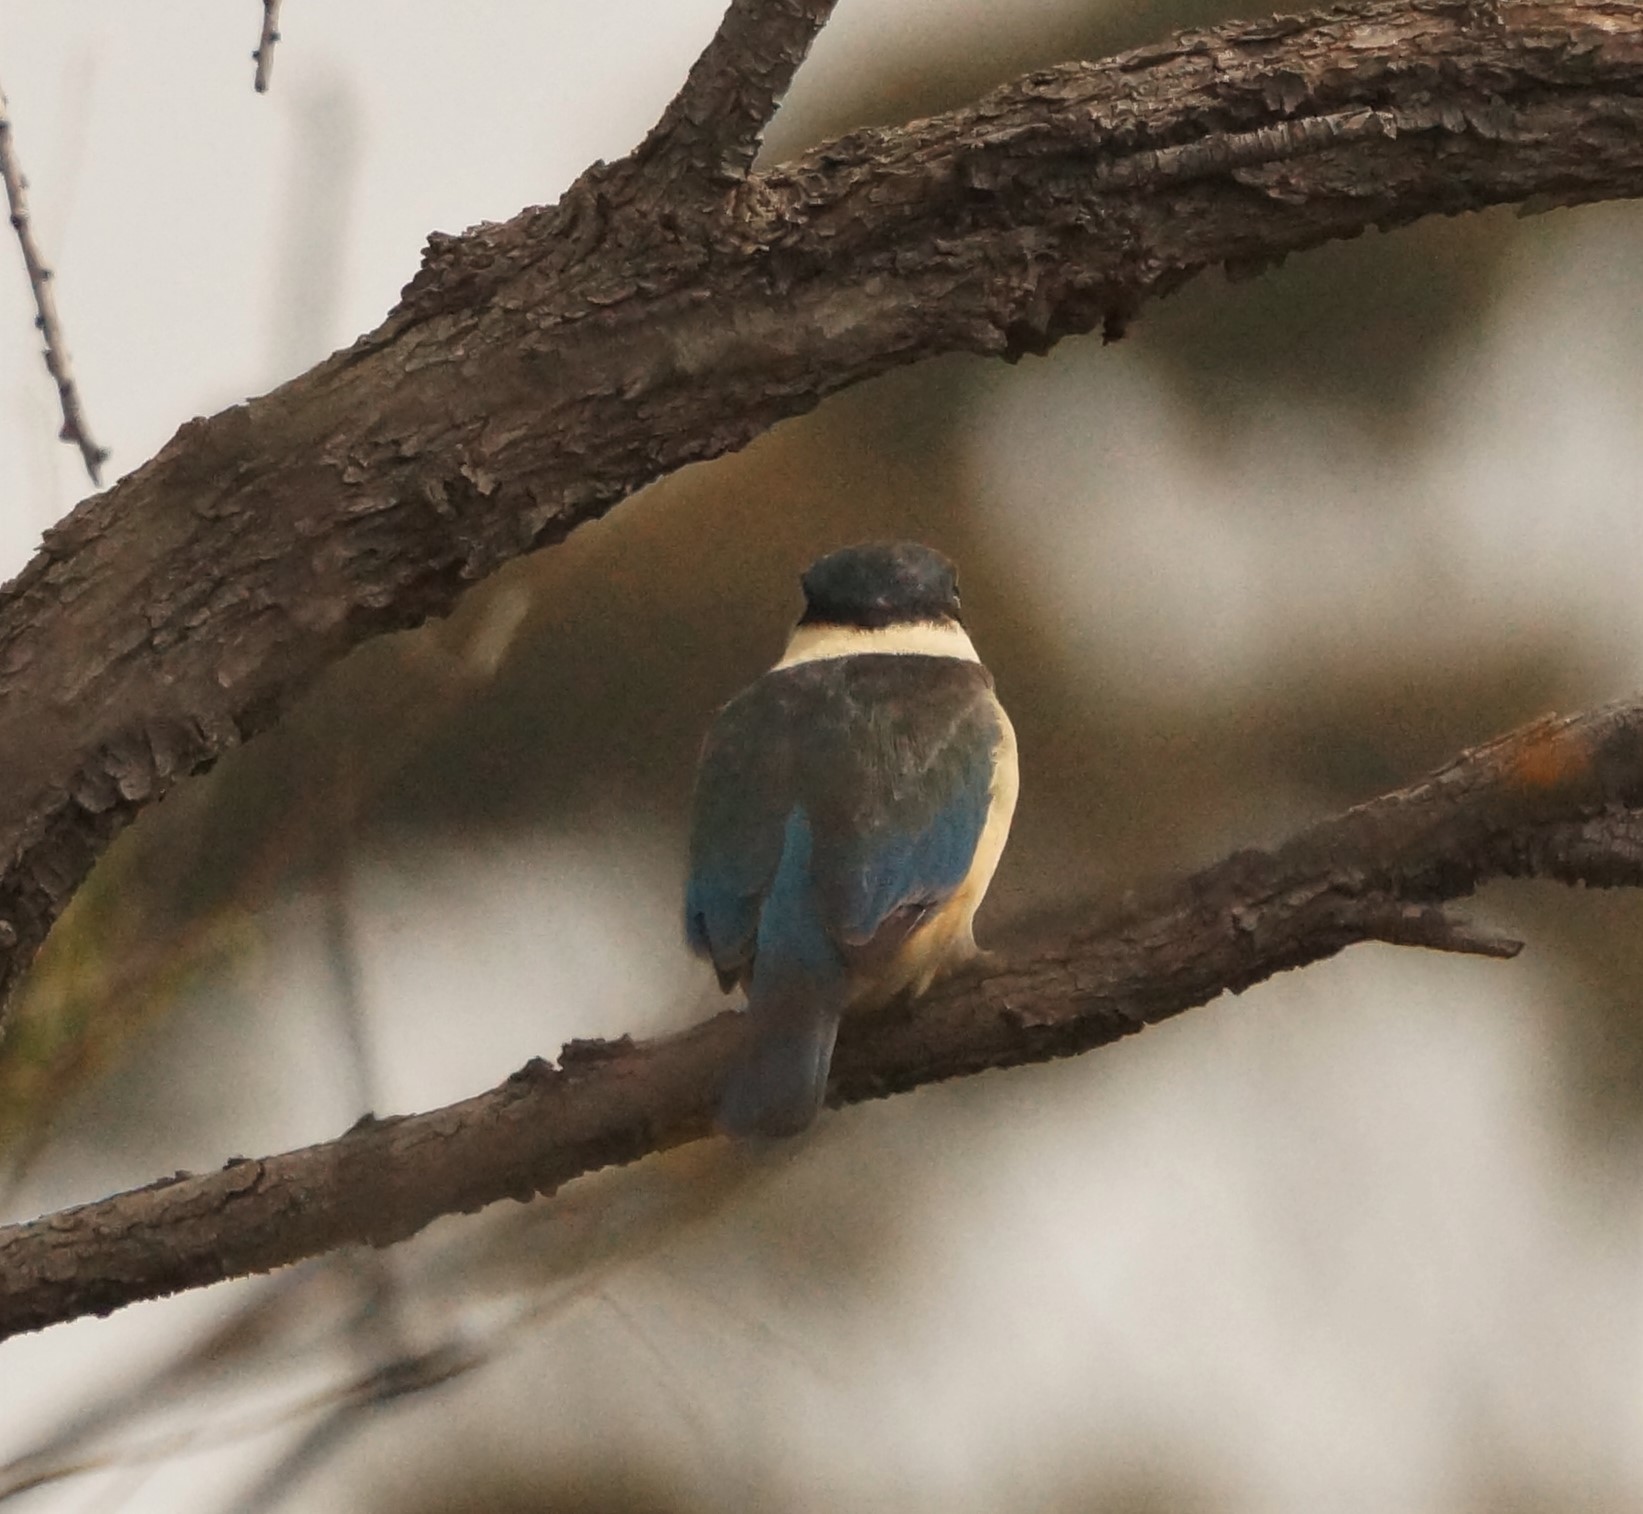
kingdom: Animalia
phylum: Chordata
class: Aves
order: Coraciiformes
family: Alcedinidae
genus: Todiramphus
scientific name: Todiramphus sanctus
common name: Sacred kingfisher
